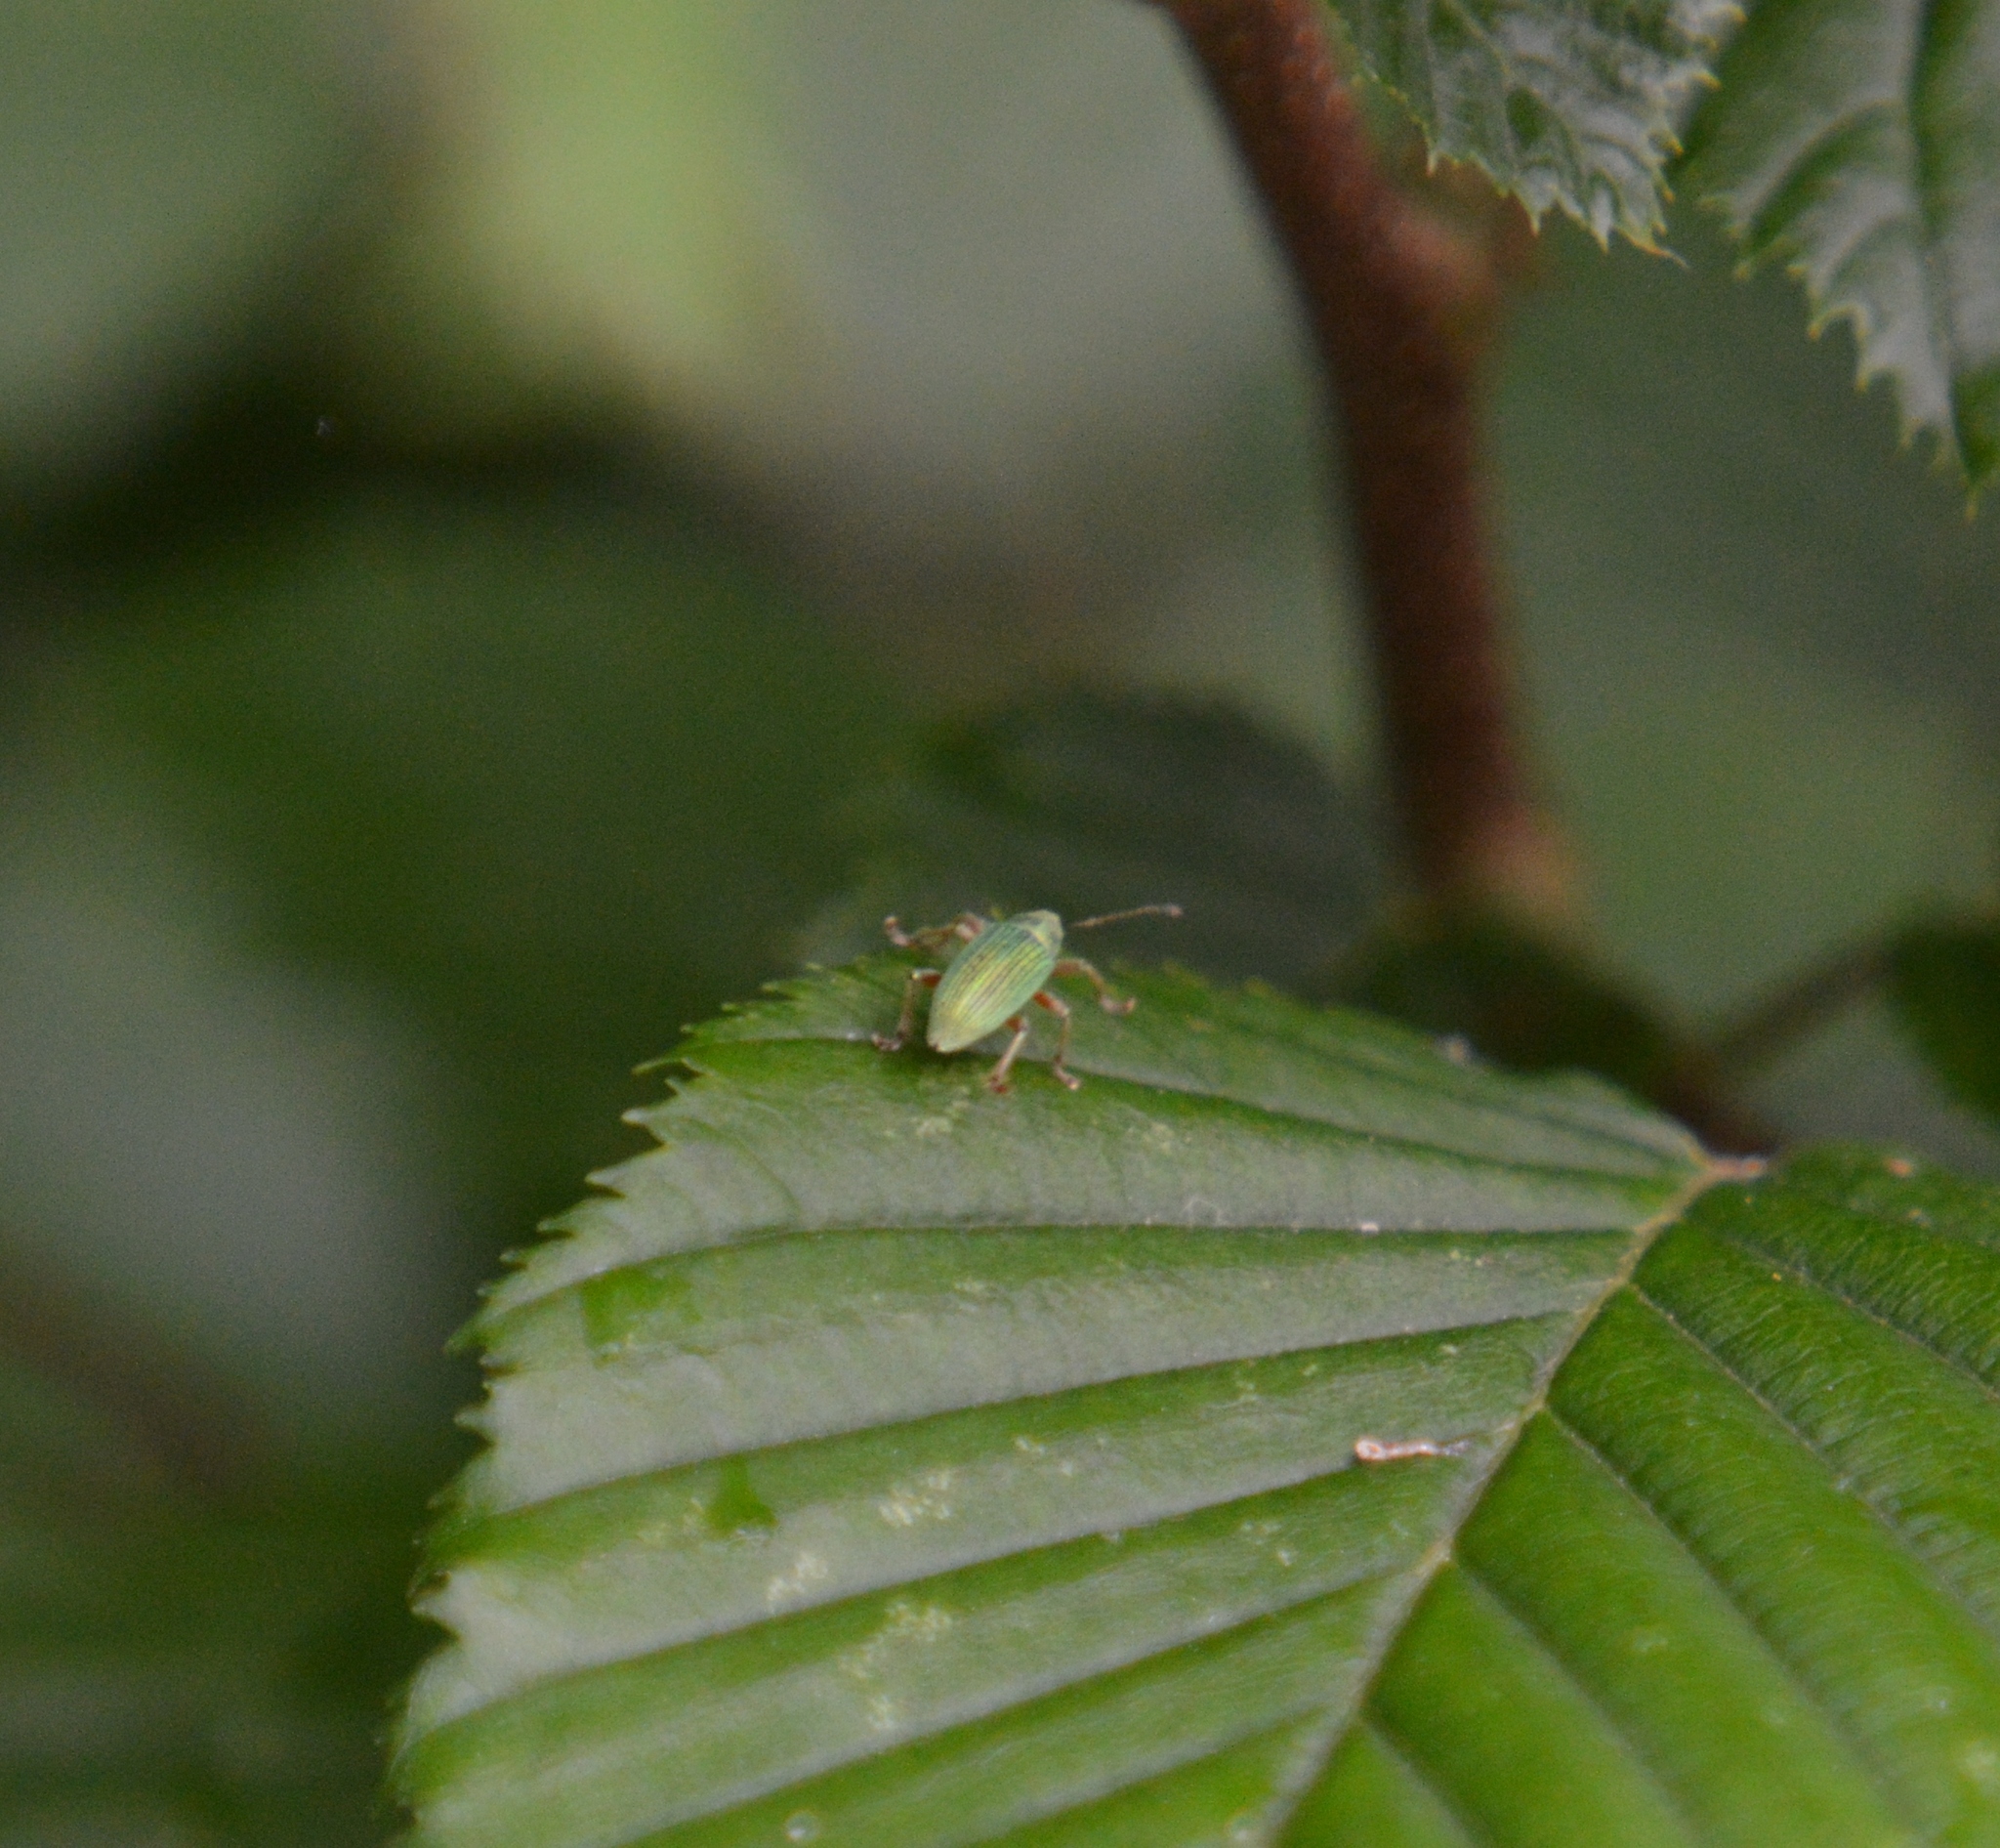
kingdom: Animalia
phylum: Arthropoda
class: Insecta
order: Coleoptera
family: Curculionidae
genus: Polydrusus
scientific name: Polydrusus formosus
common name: Weevil
